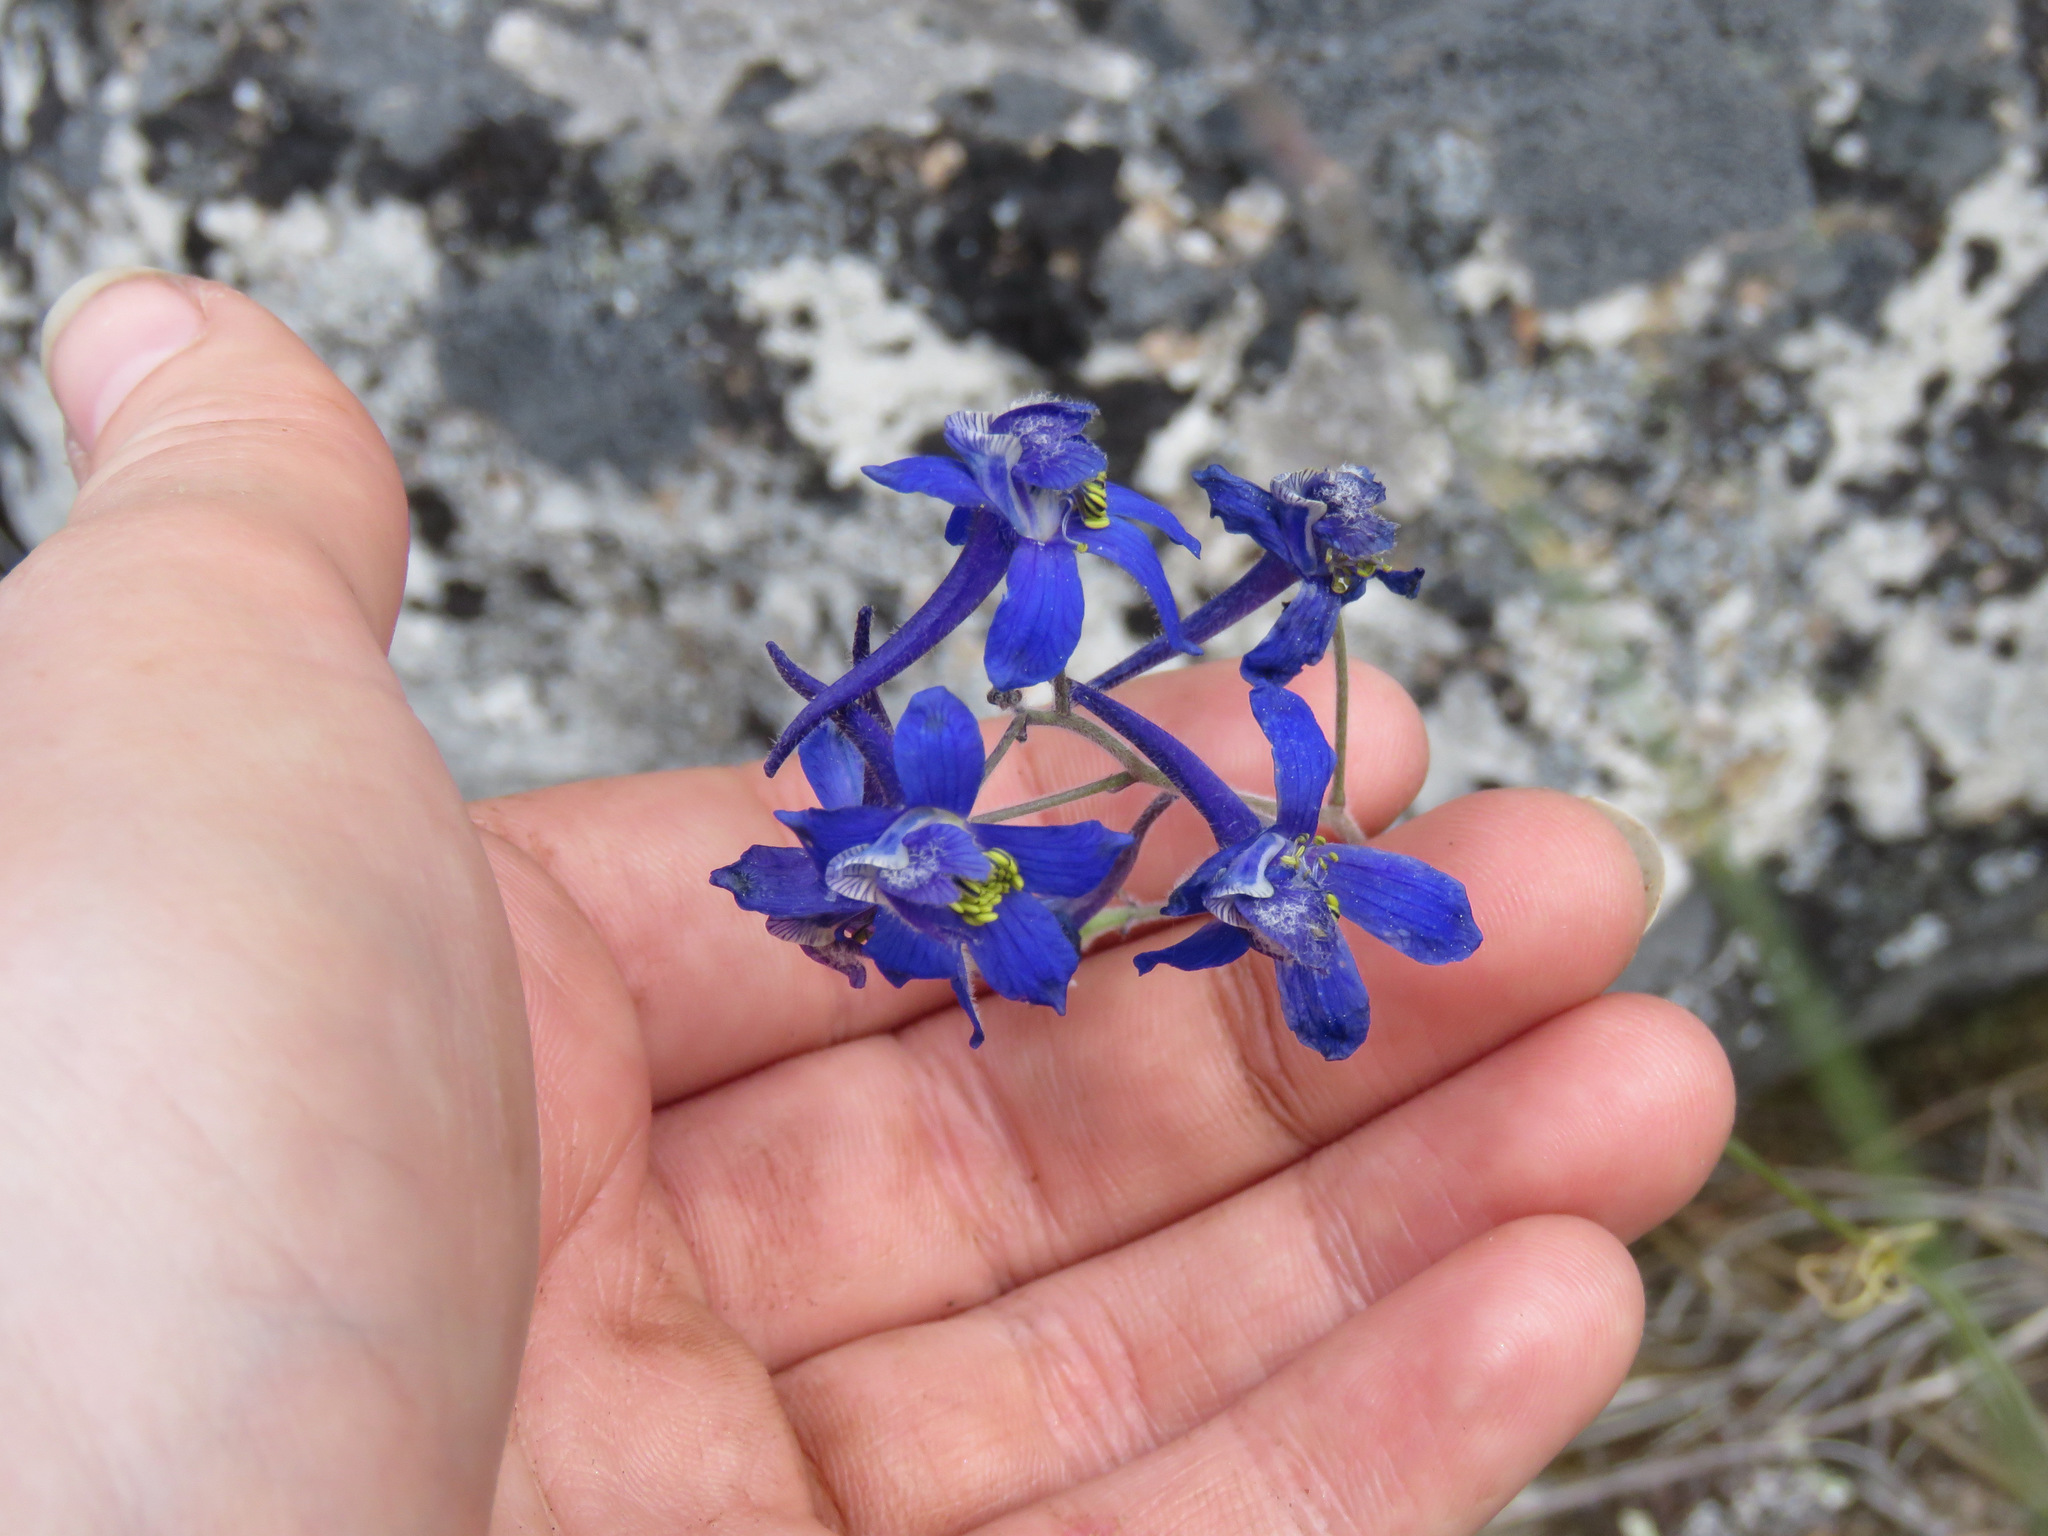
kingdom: Plantae
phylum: Tracheophyta
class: Magnoliopsida
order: Ranunculales
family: Ranunculaceae
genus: Delphinium
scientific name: Delphinium nuttallianum
